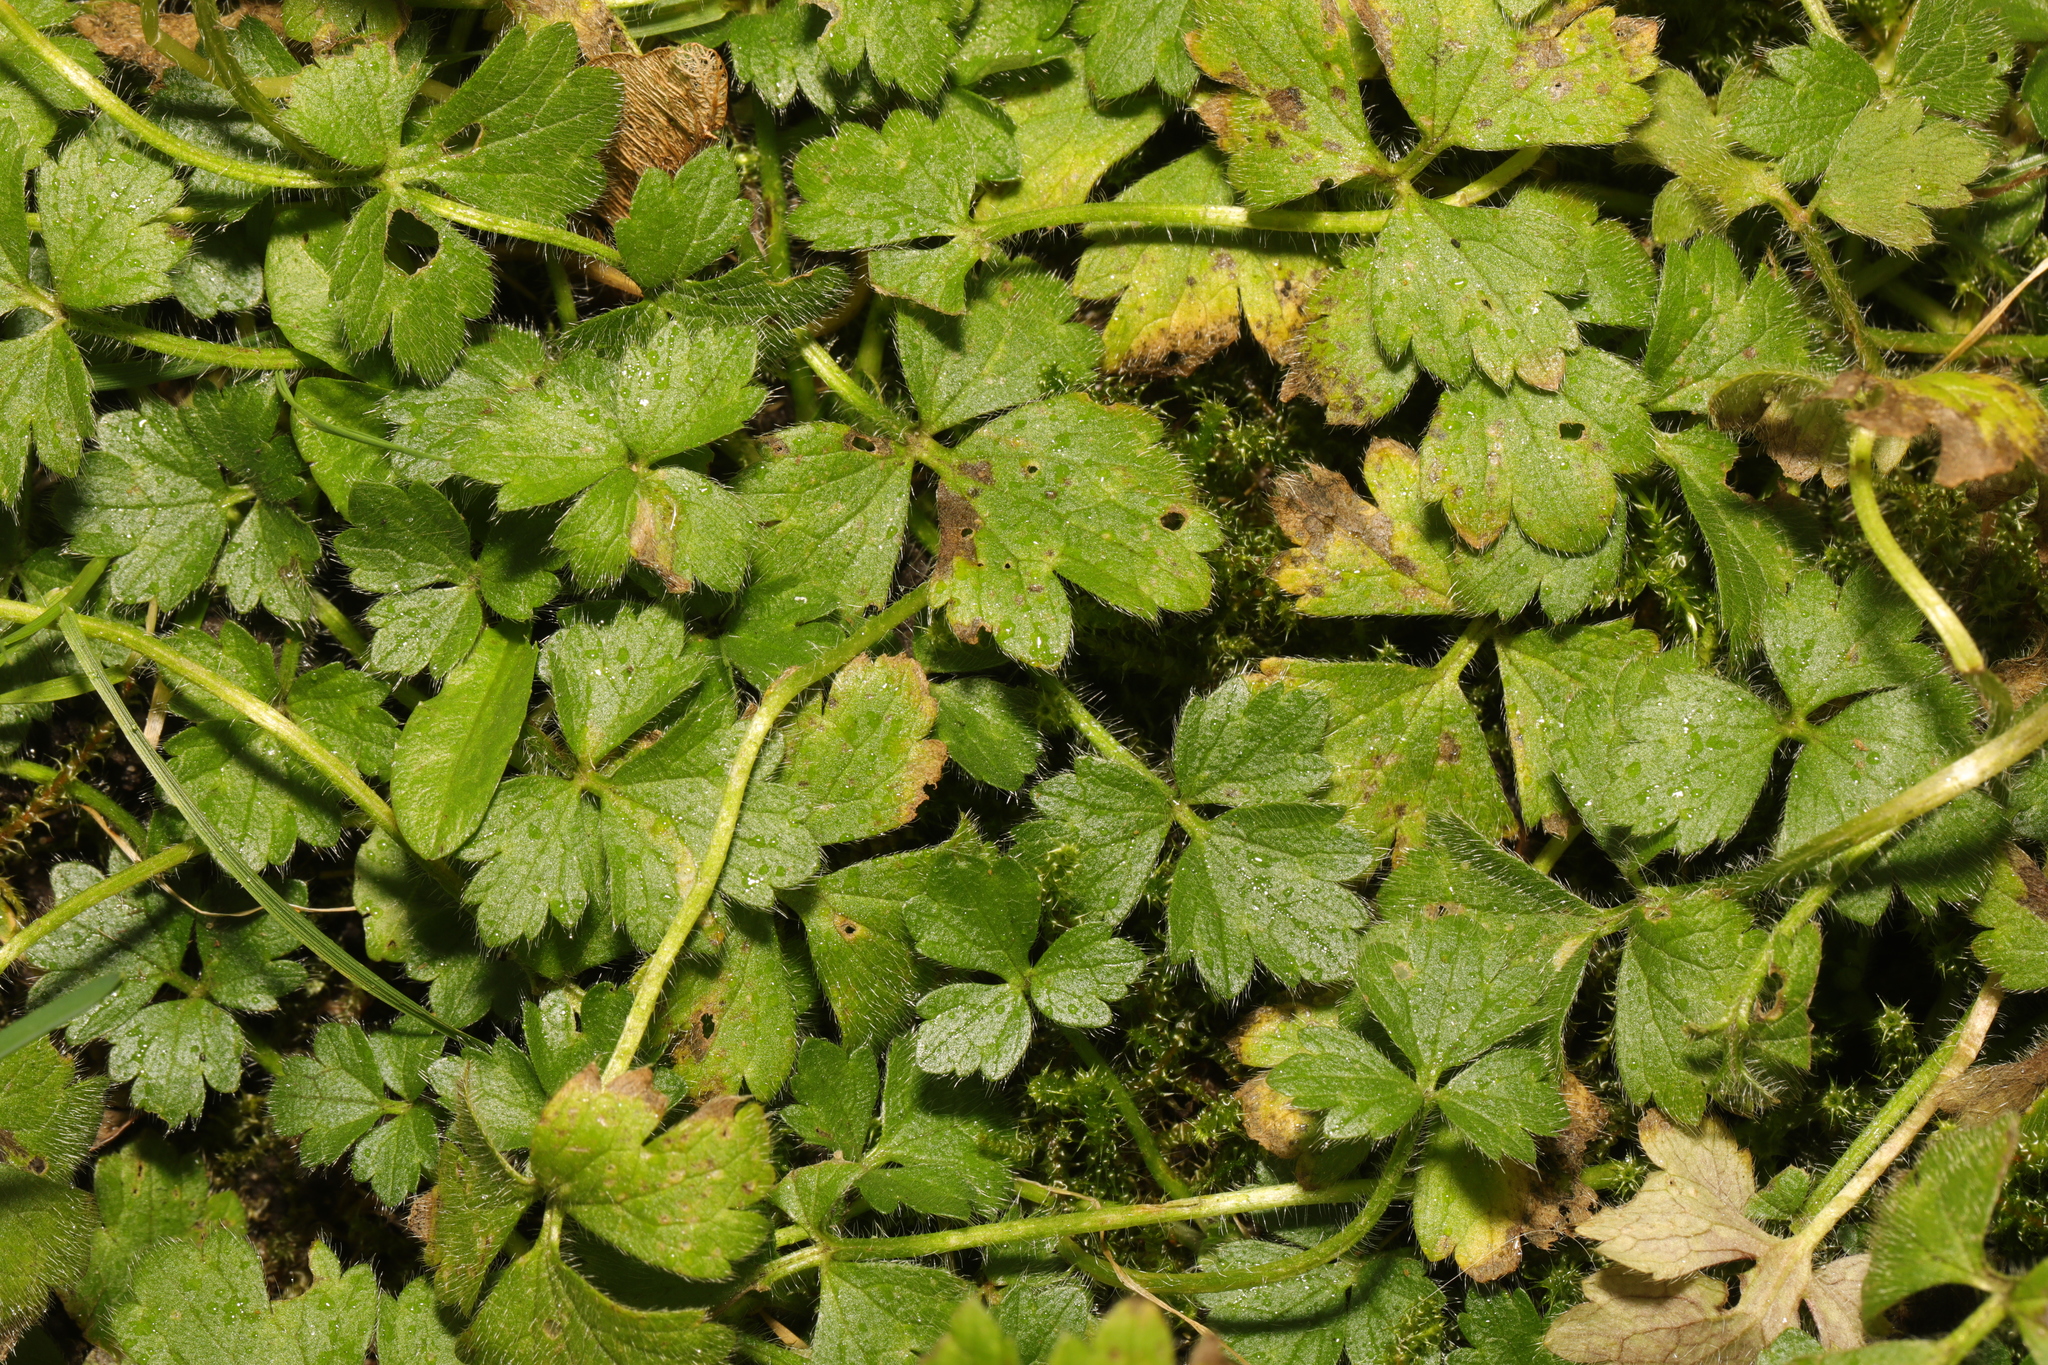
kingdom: Plantae
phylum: Tracheophyta
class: Magnoliopsida
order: Ranunculales
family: Ranunculaceae
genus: Ranunculus
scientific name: Ranunculus repens
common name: Creeping buttercup
